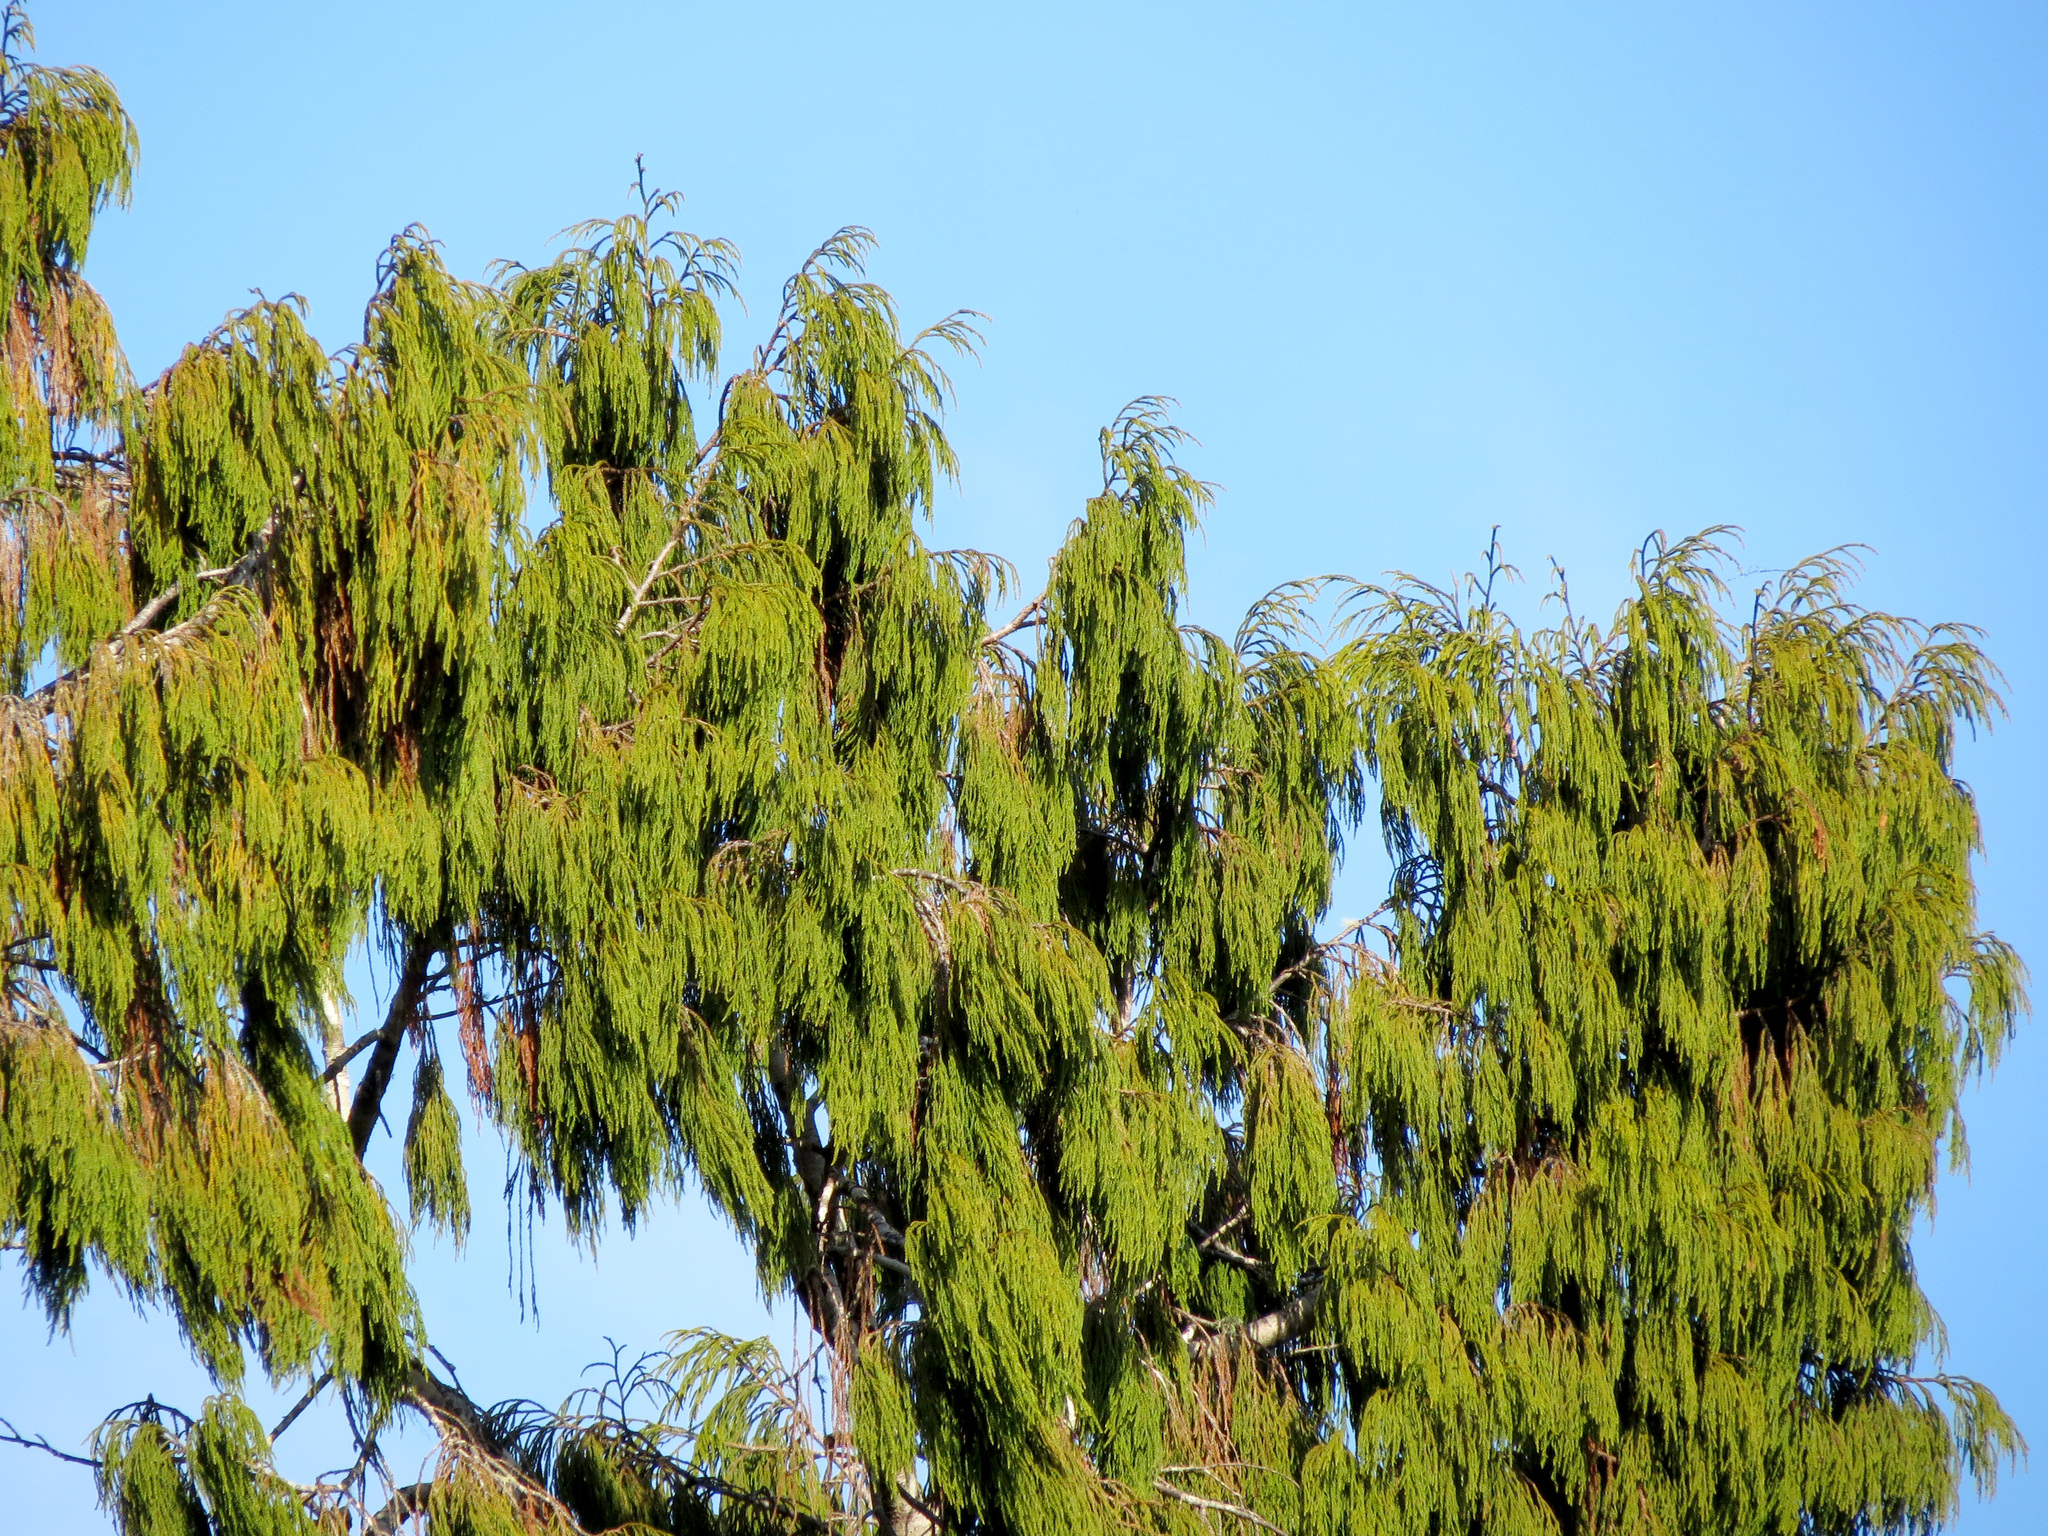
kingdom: Plantae
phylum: Tracheophyta
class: Pinopsida
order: Pinales
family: Podocarpaceae
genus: Dacrydium
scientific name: Dacrydium cupressinum
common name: Red pine
